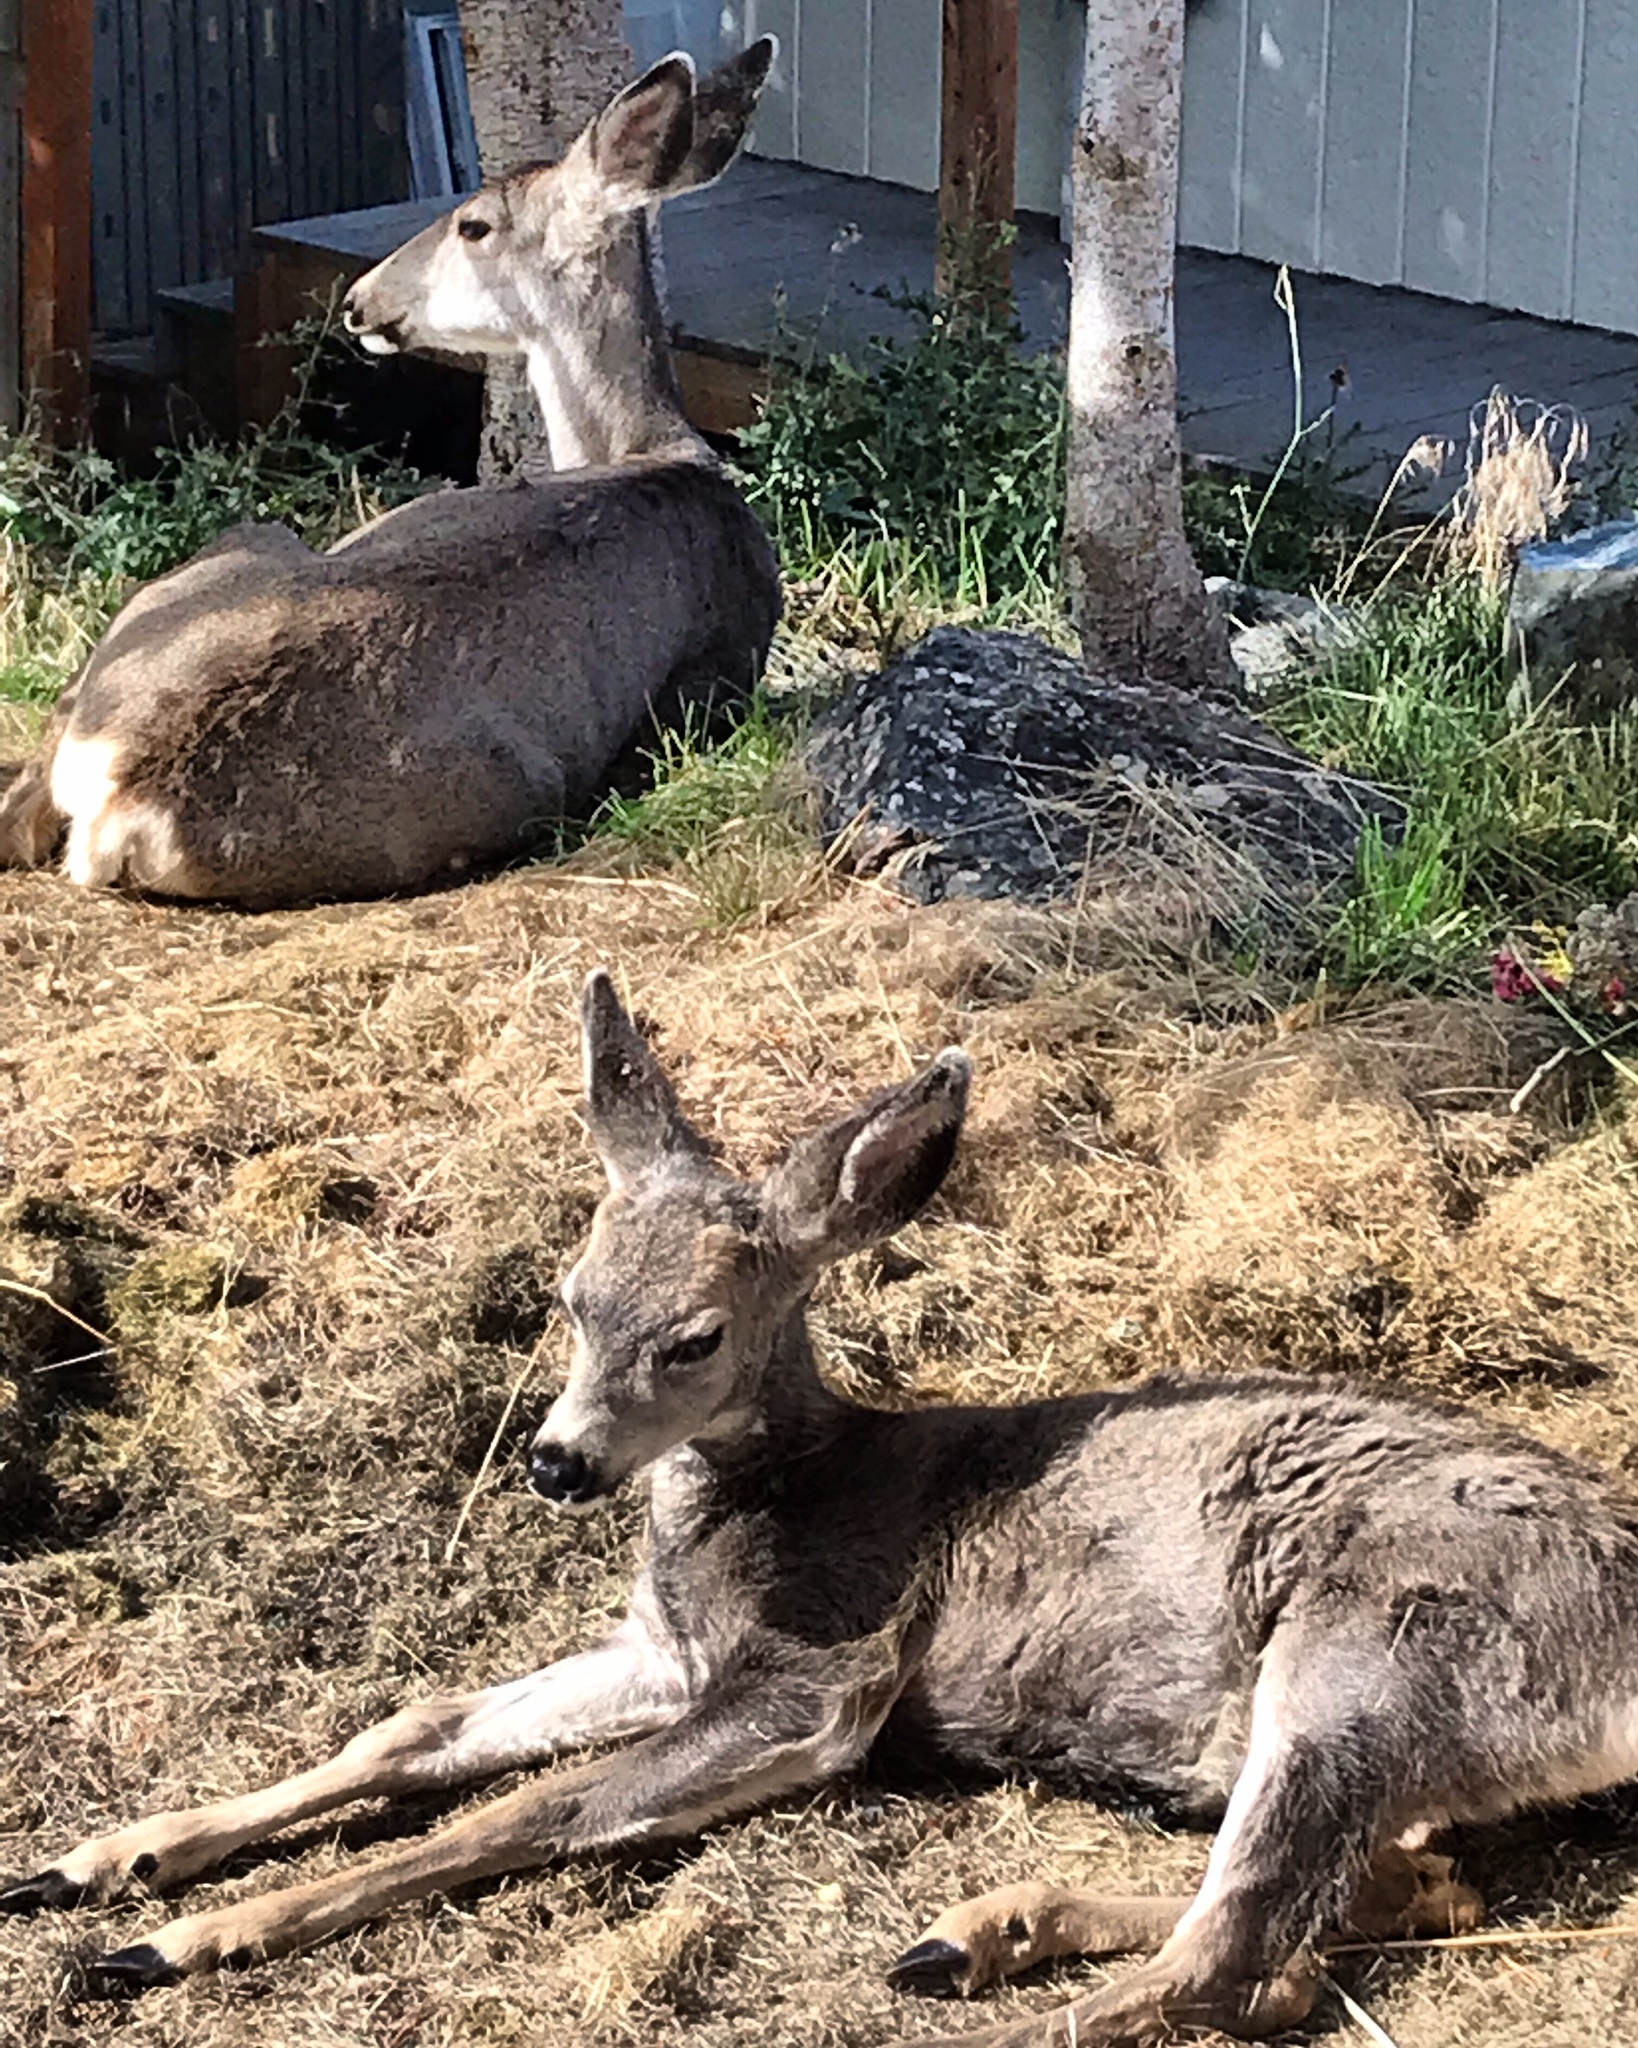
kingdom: Animalia
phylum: Chordata
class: Mammalia
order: Artiodactyla
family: Cervidae
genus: Odocoileus
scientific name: Odocoileus hemionus
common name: Mule deer
